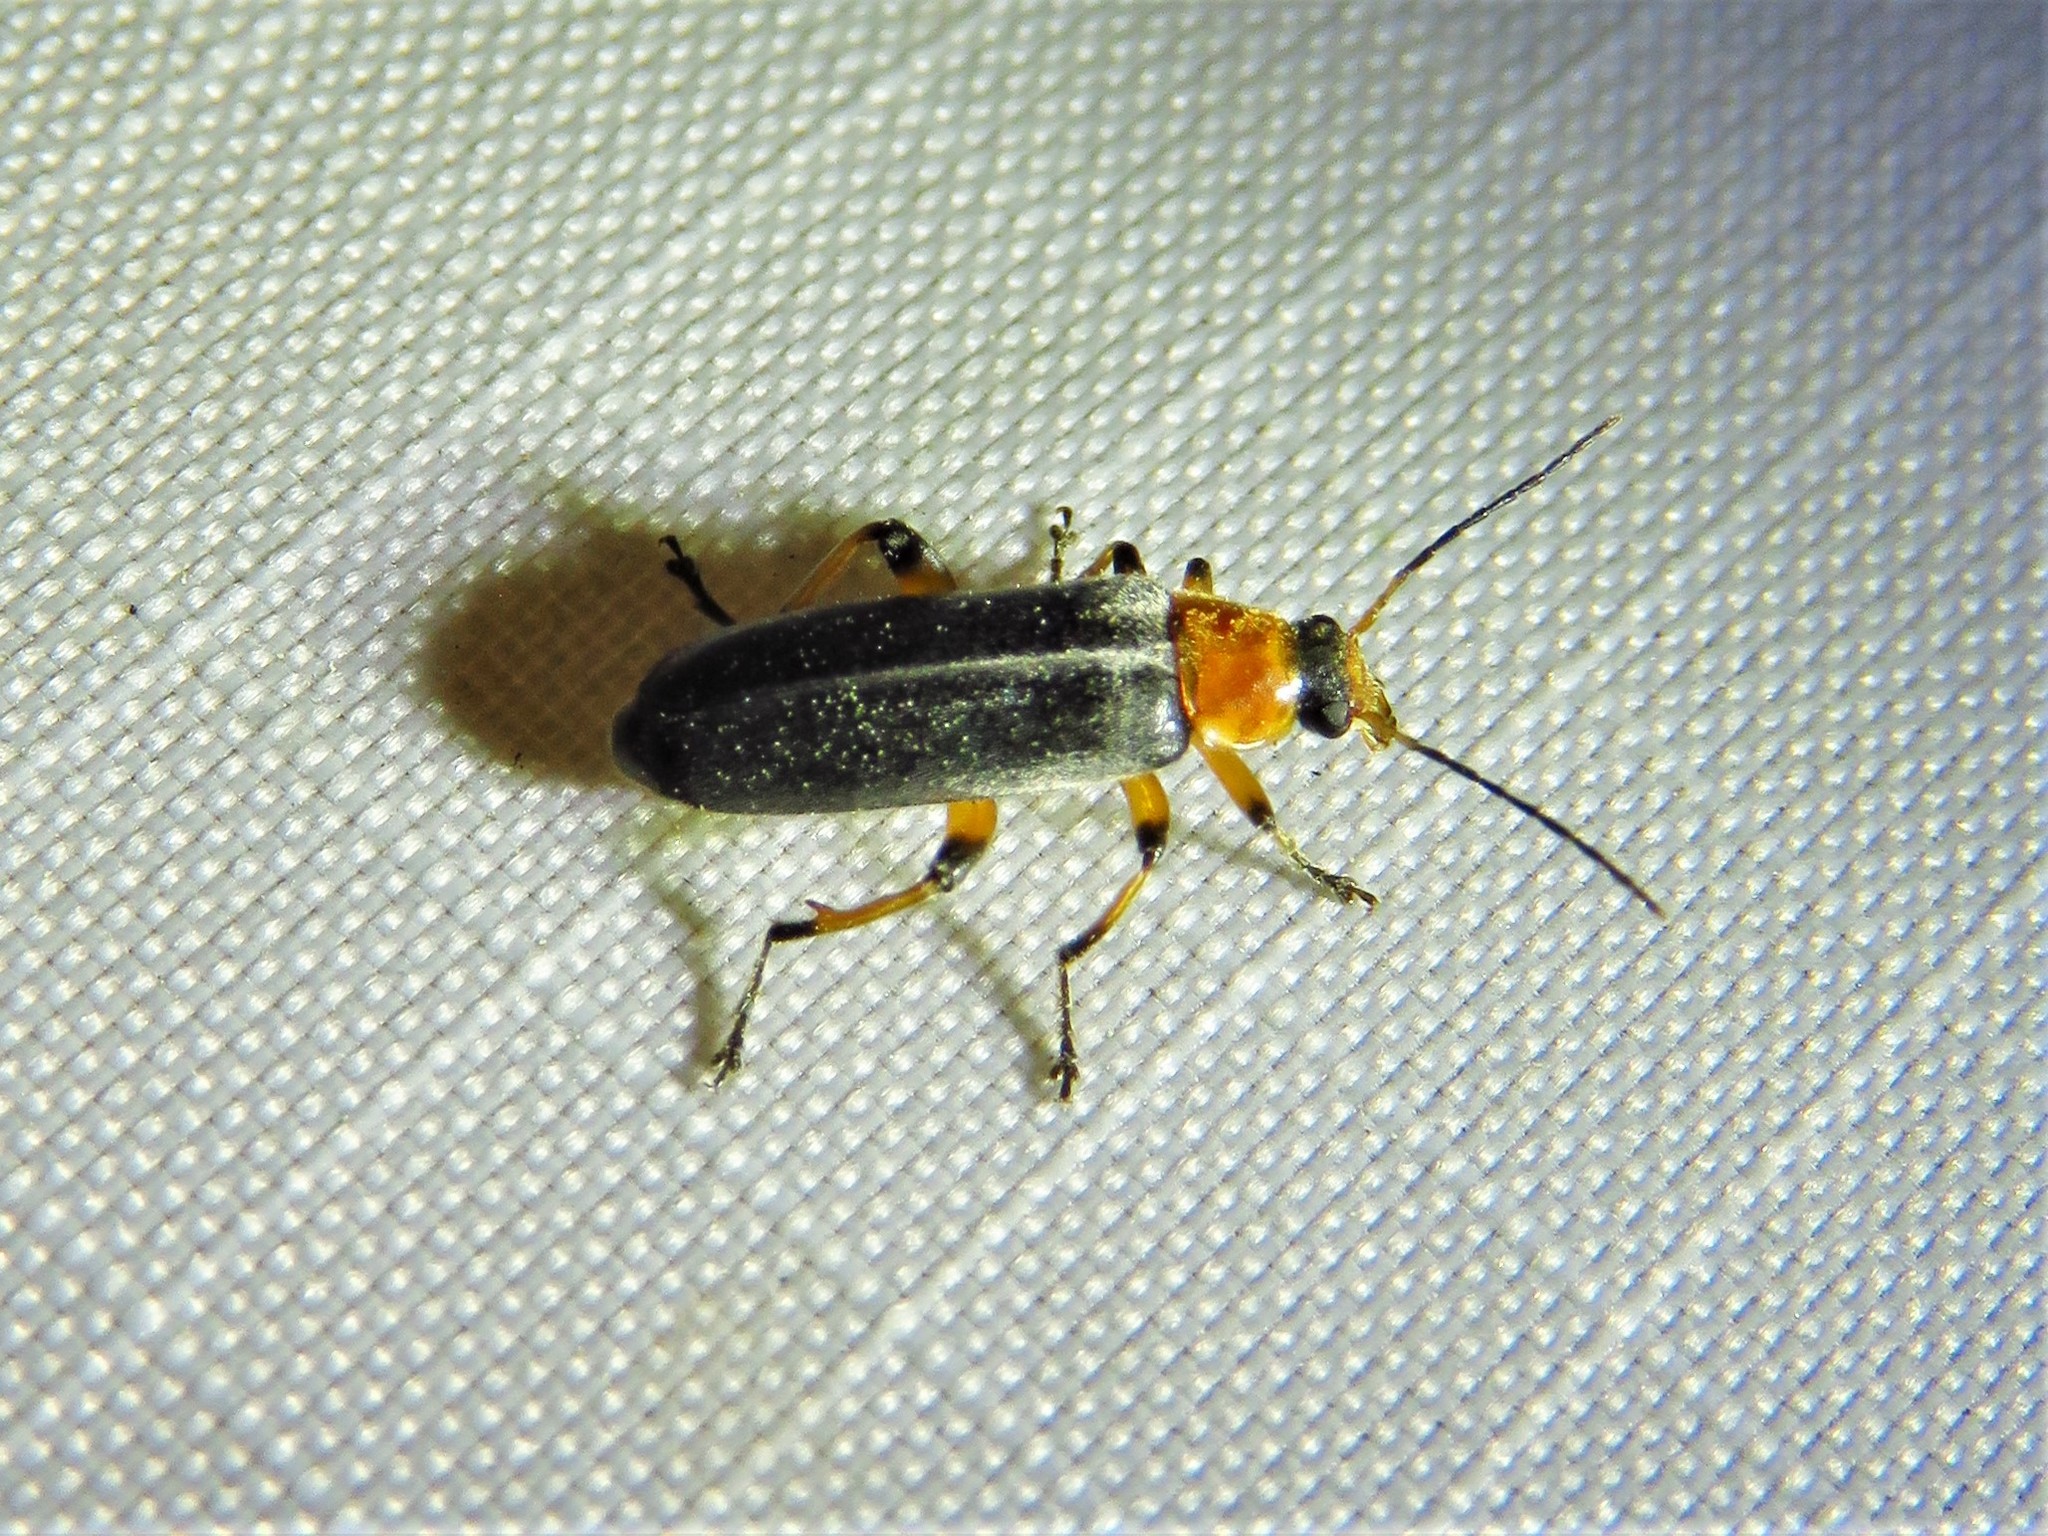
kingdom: Animalia
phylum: Arthropoda
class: Insecta
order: Coleoptera
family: Melandryidae
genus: Osphya
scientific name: Osphya varians
